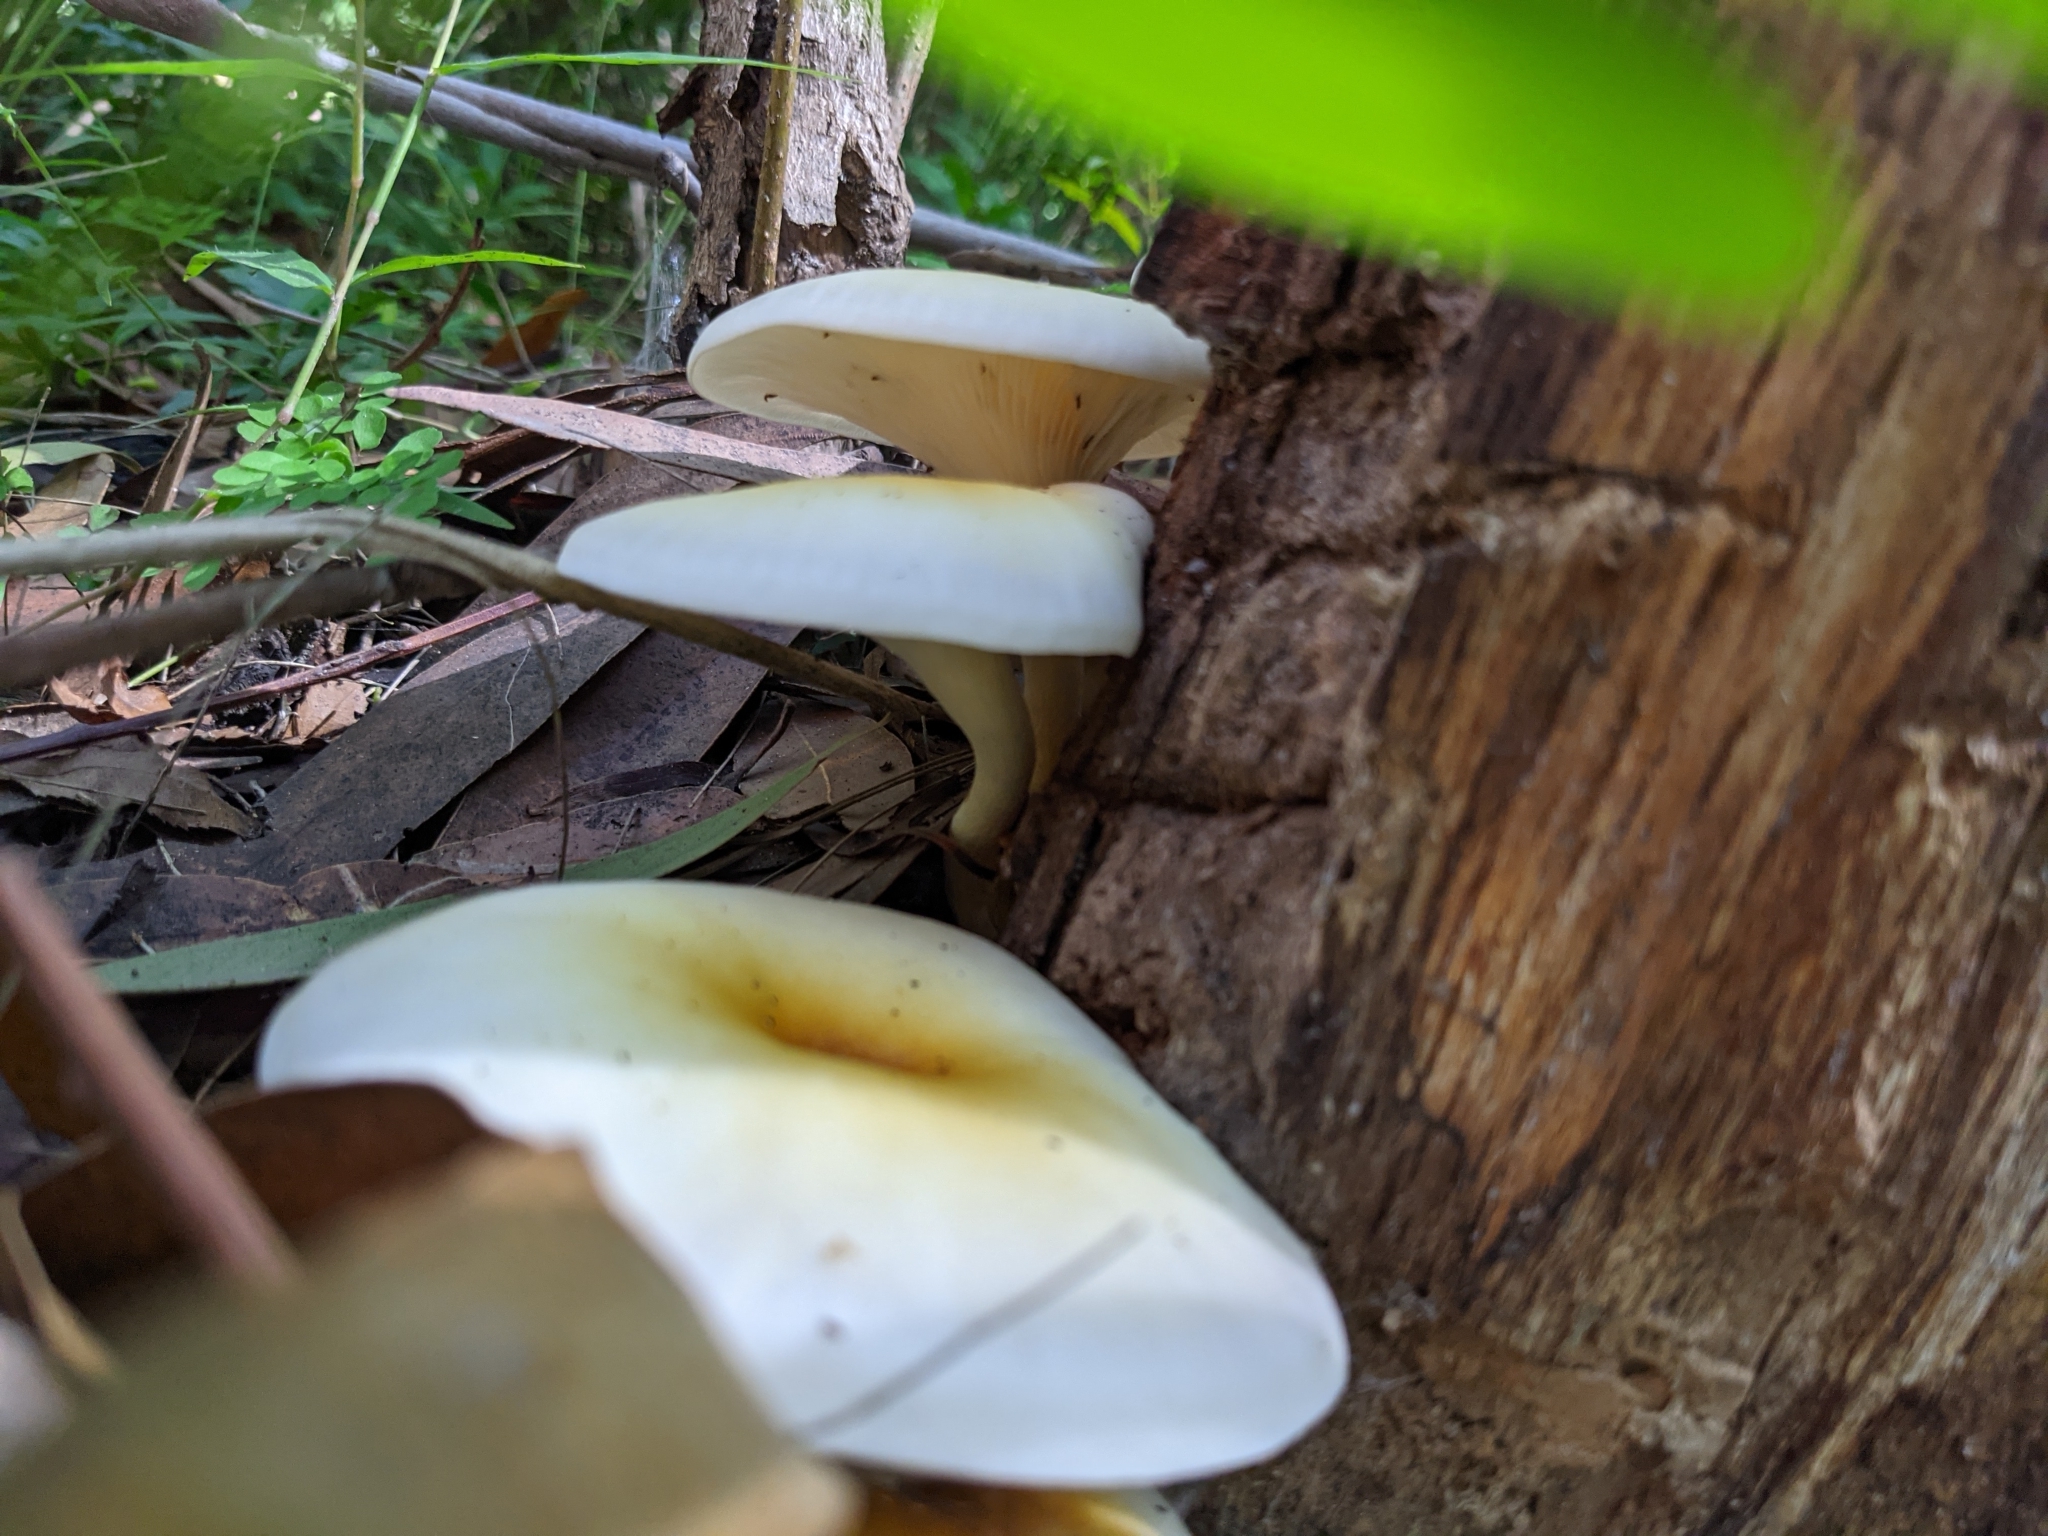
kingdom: Fungi
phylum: Basidiomycota
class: Agaricomycetes
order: Agaricales
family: Omphalotaceae
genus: Omphalotus
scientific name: Omphalotus nidiformis
